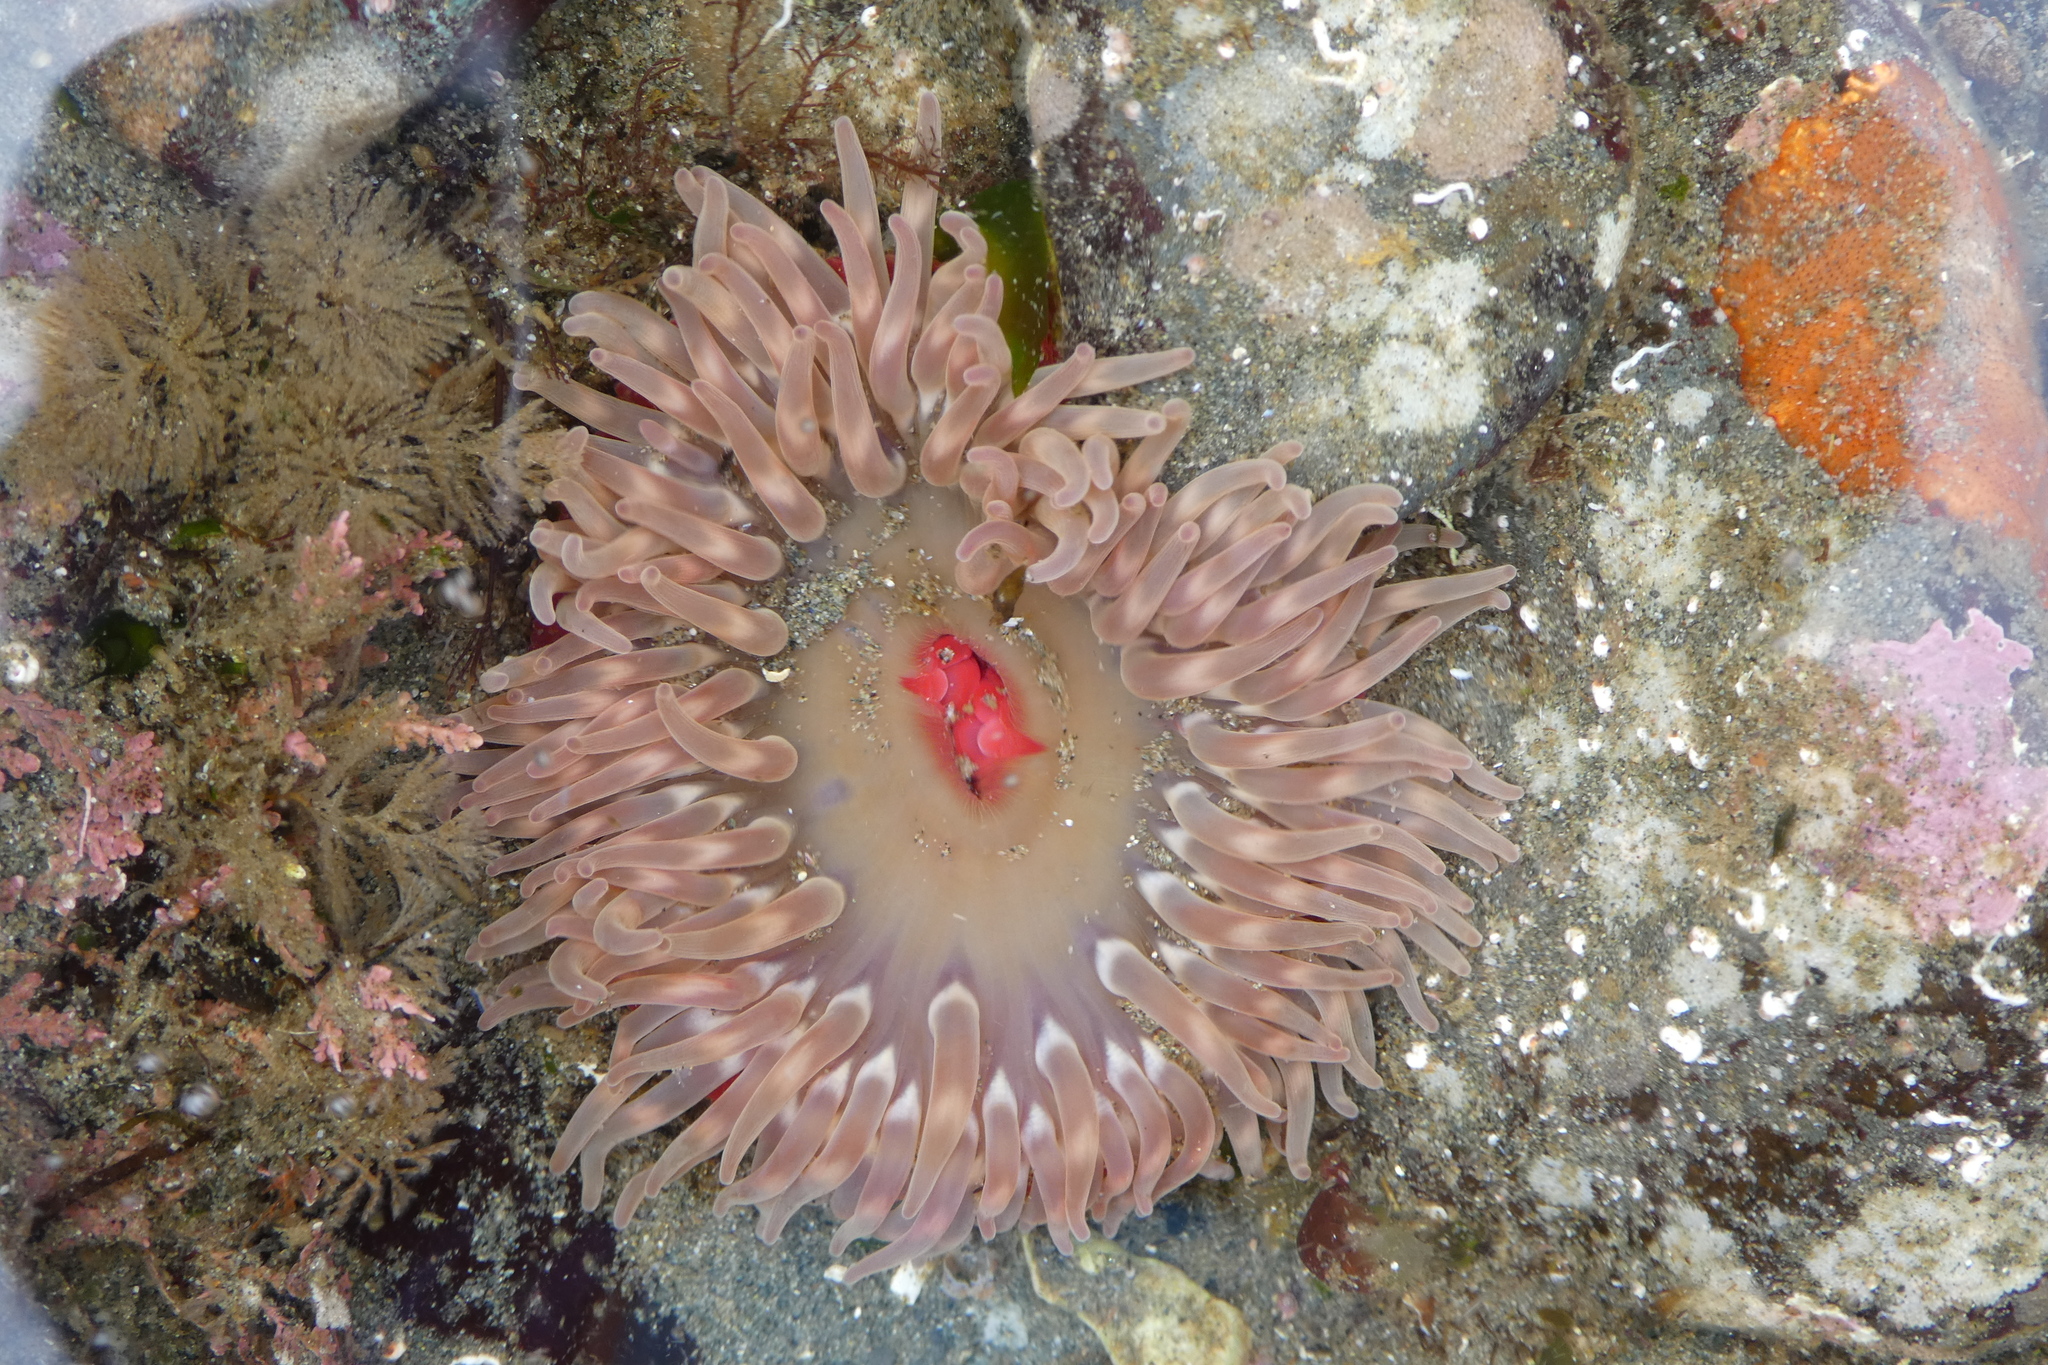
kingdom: Animalia
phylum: Cnidaria
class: Anthozoa
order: Actiniaria
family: Actiniidae
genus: Urticina
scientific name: Urticina clandestina
